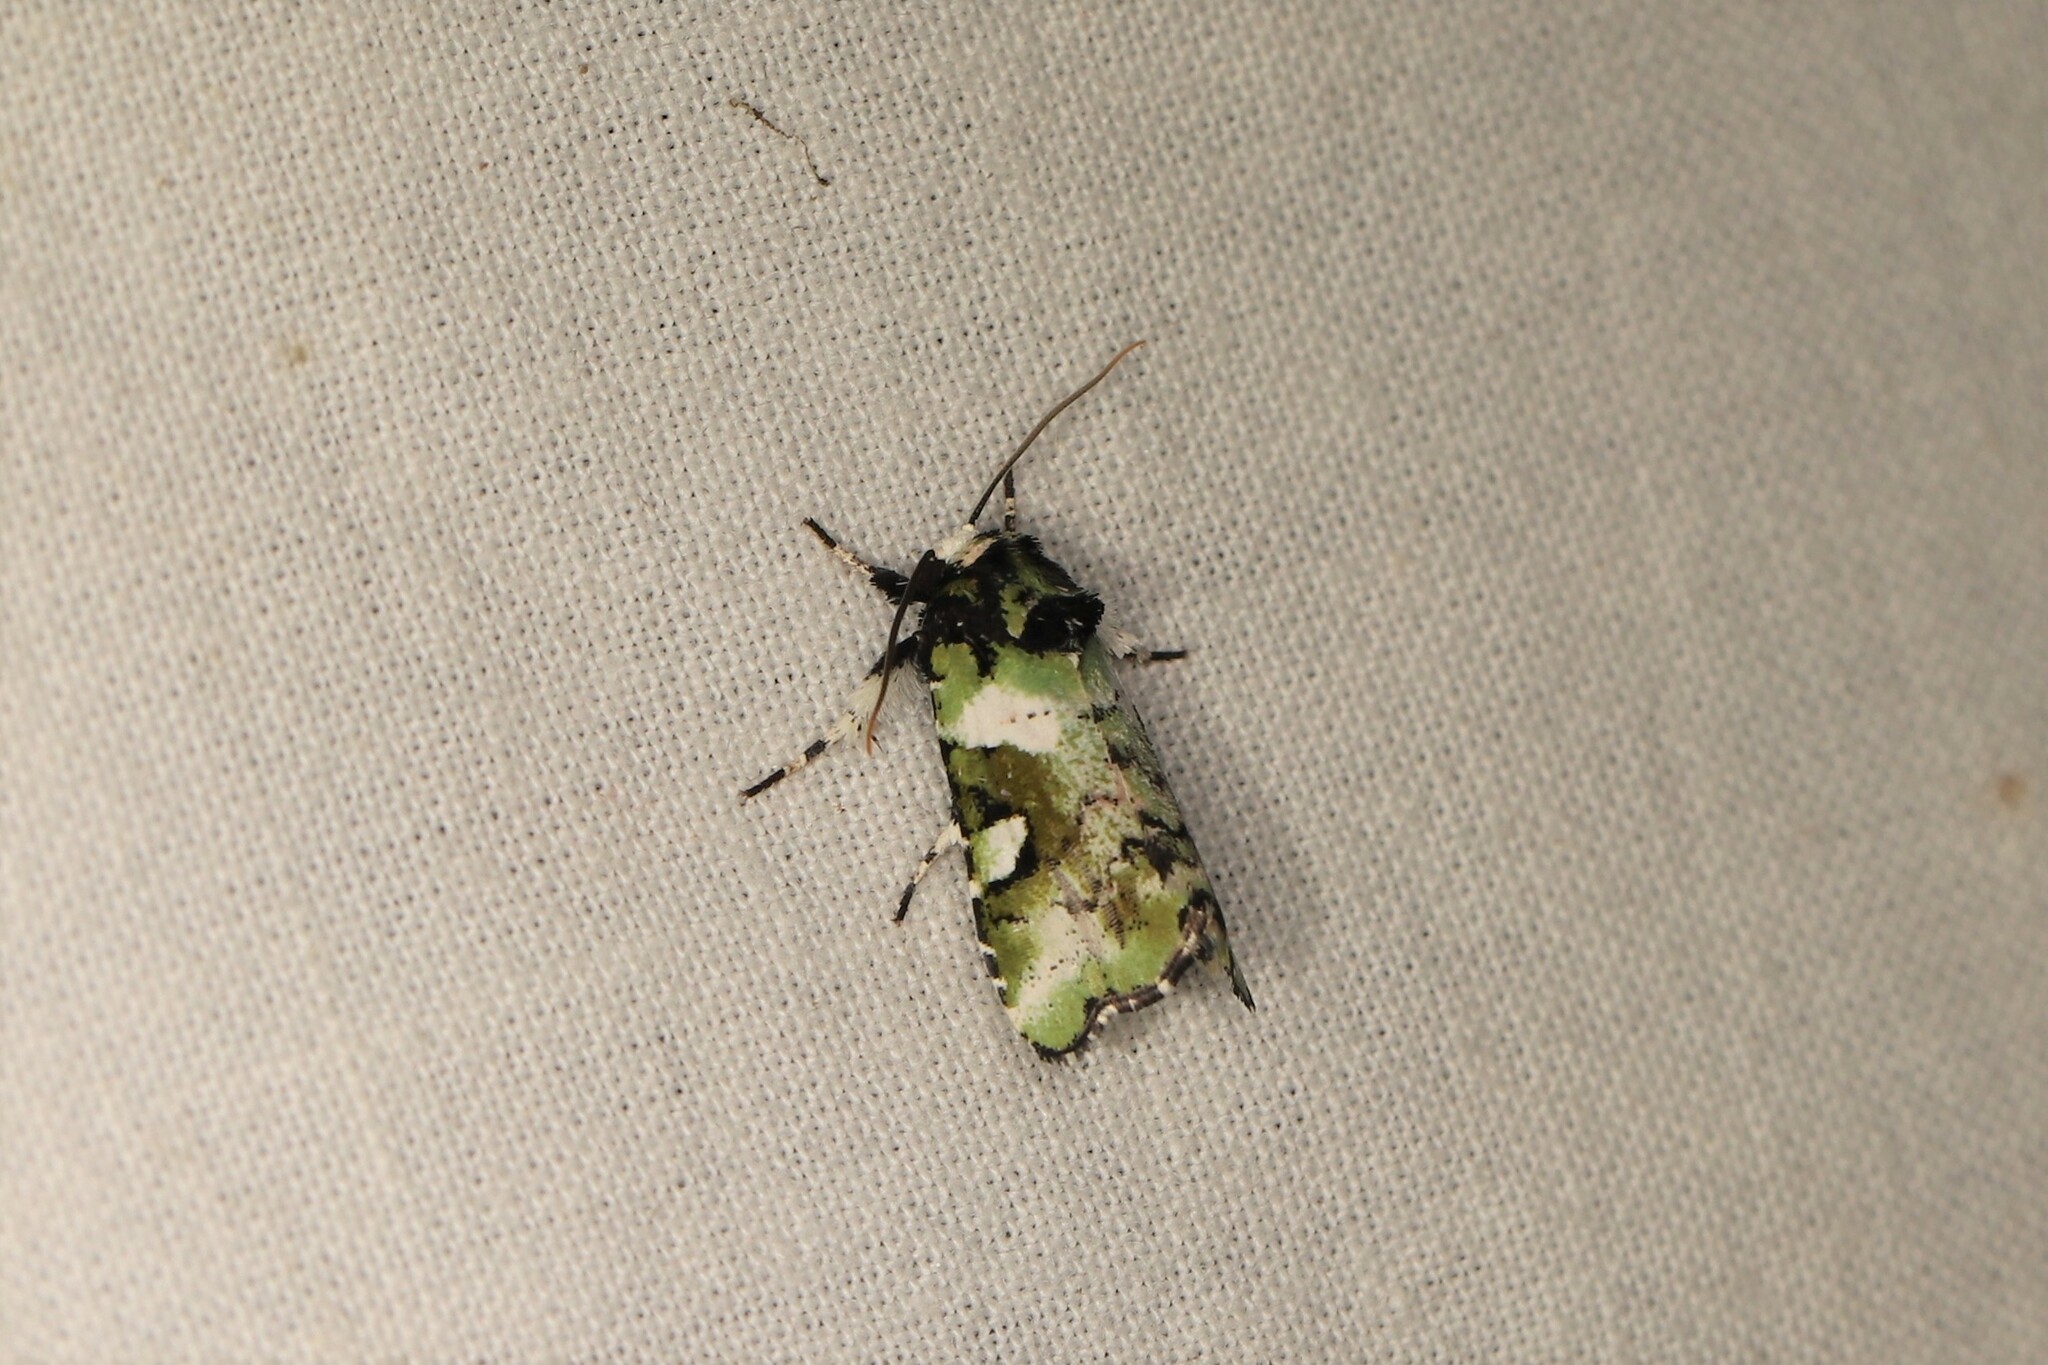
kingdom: Animalia
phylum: Arthropoda
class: Insecta
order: Lepidoptera
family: Noctuidae
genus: Emarginea
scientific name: Emarginea niphoplaga
